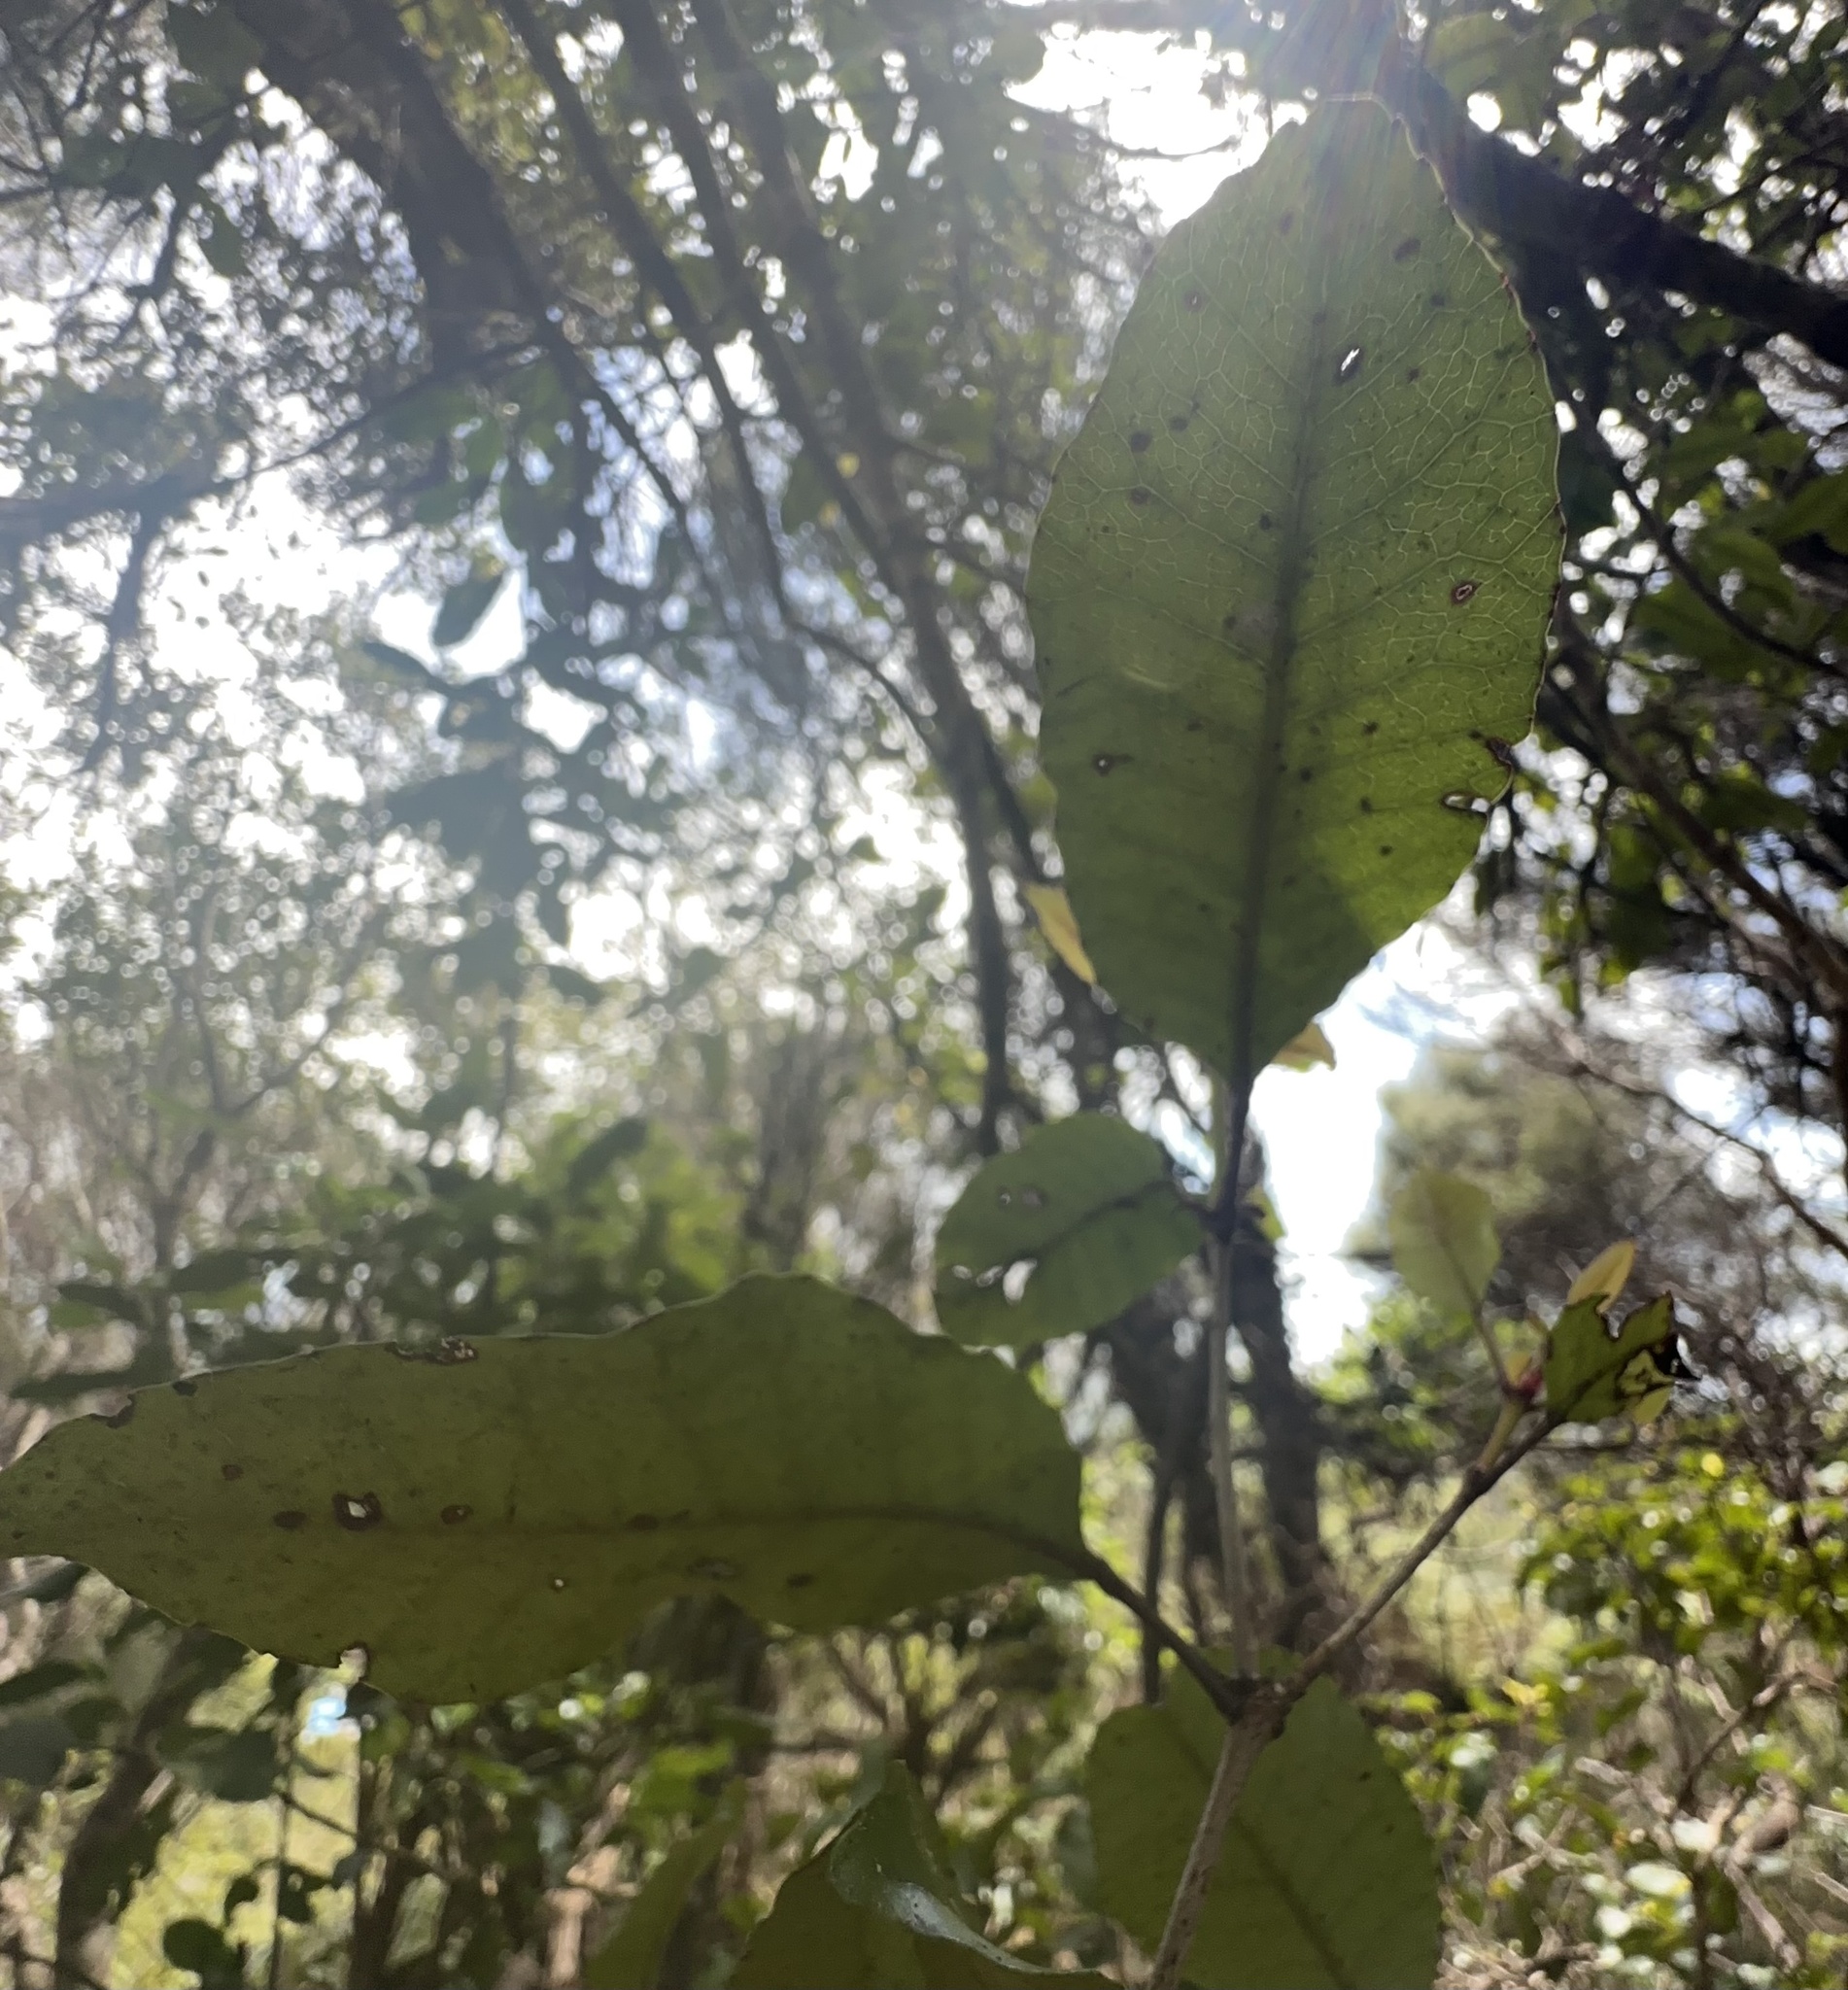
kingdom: Plantae
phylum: Tracheophyta
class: Magnoliopsida
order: Oxalidales
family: Cunoniaceae
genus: Pterophylla
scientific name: Pterophylla racemosa
